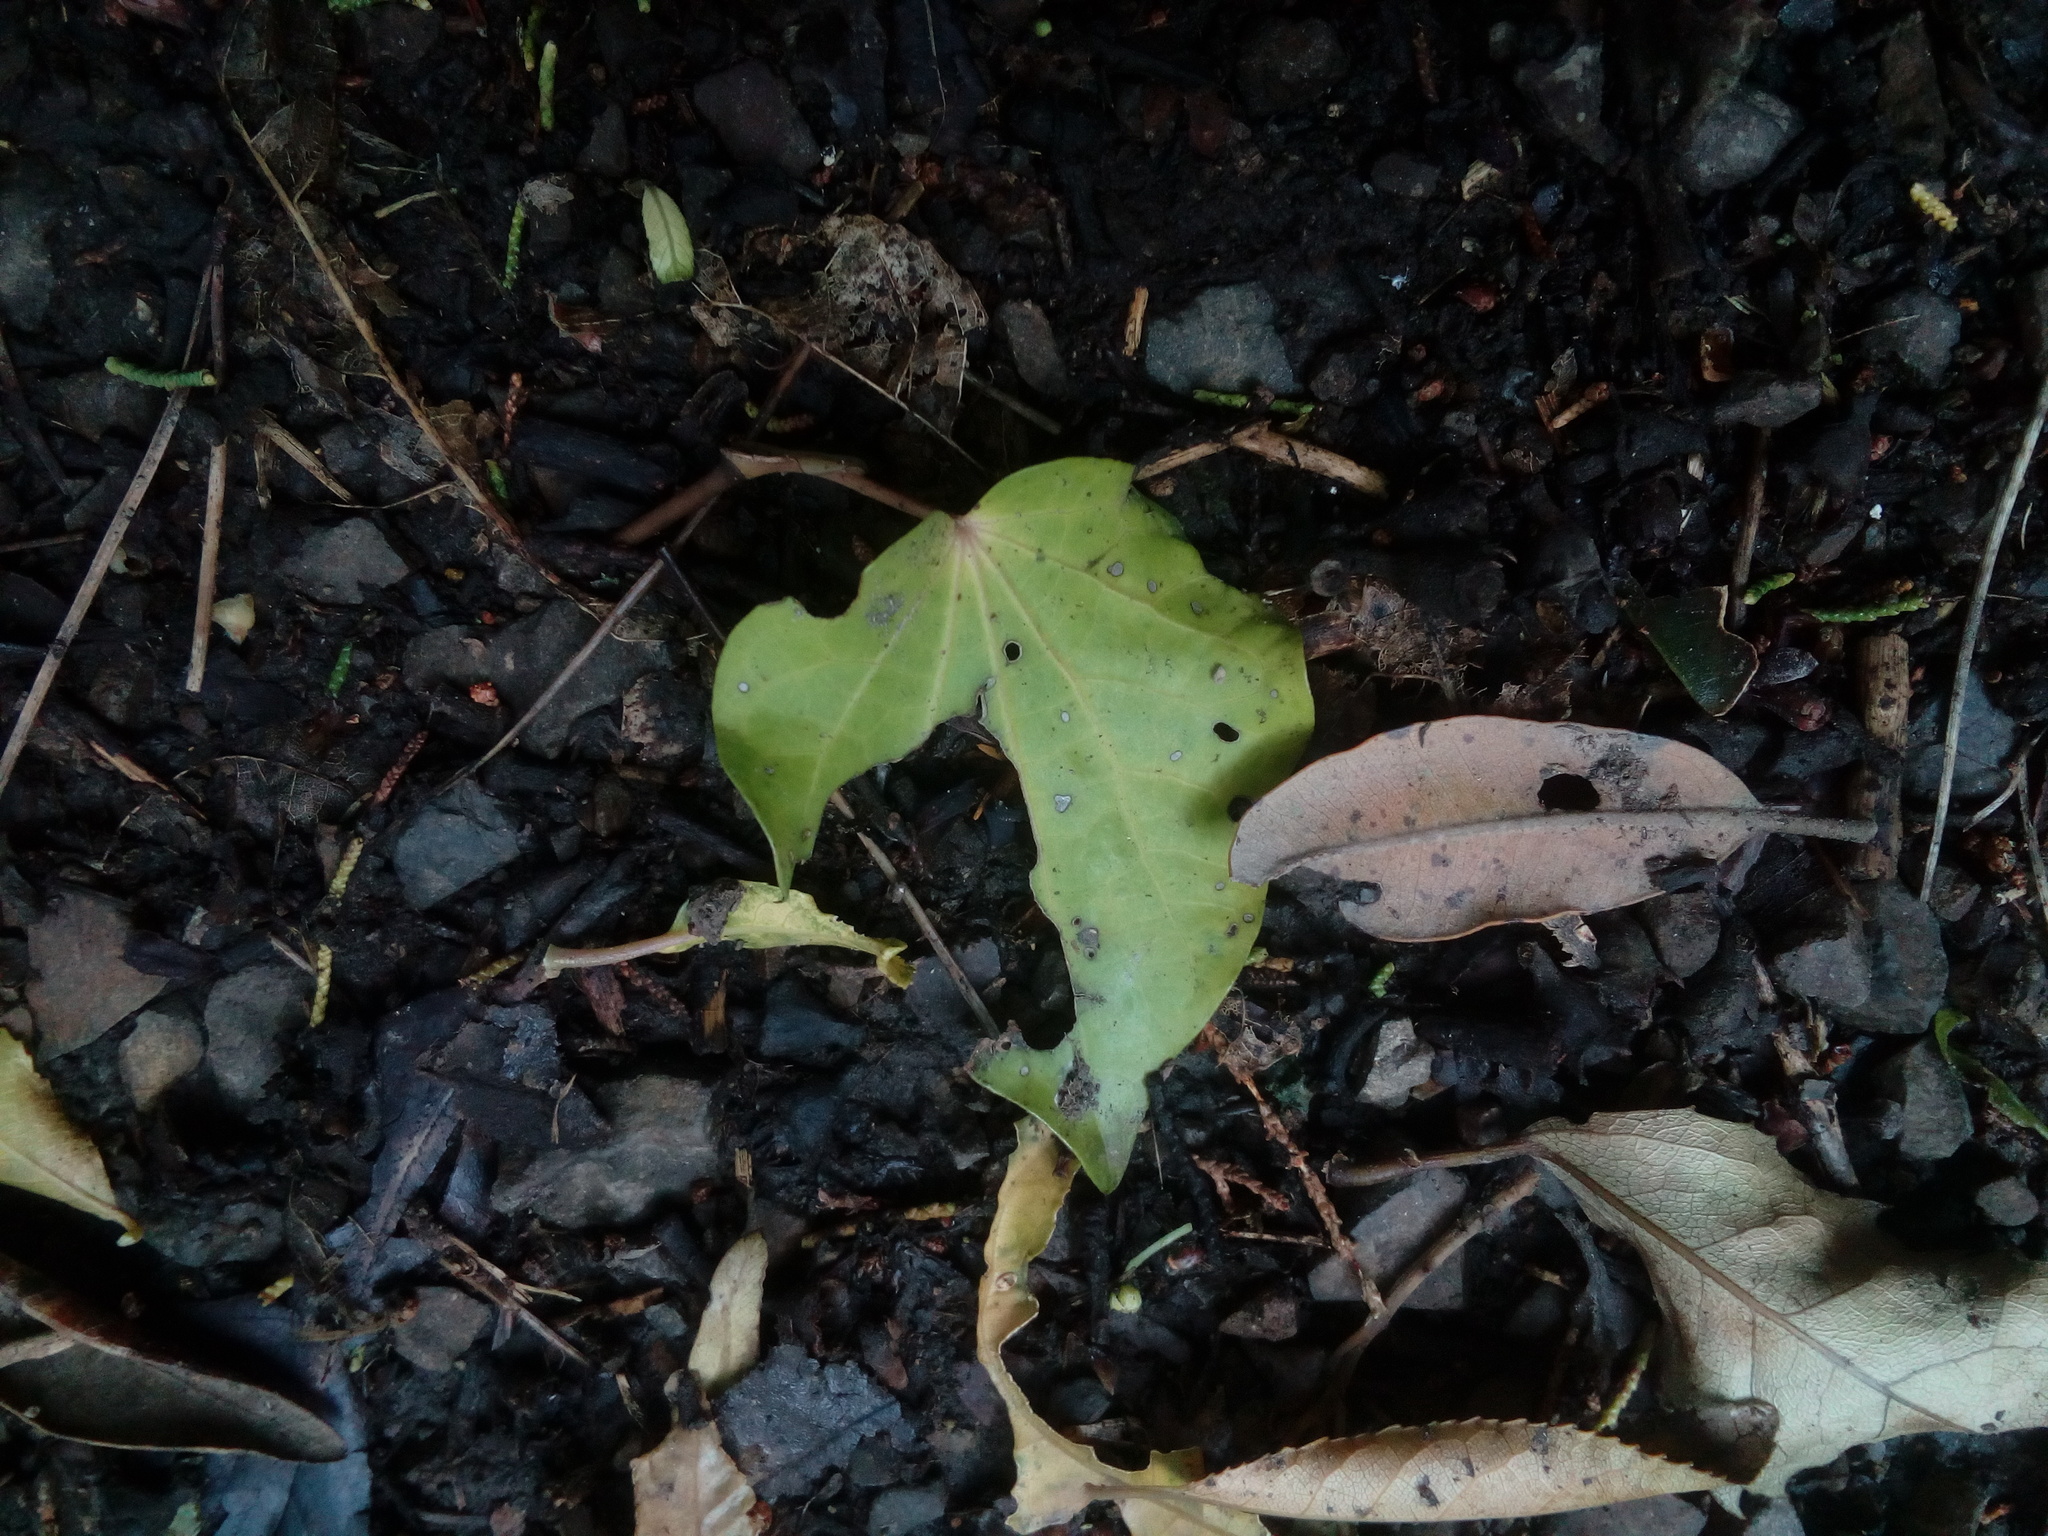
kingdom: Plantae
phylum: Tracheophyta
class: Magnoliopsida
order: Piperales
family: Piperaceae
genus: Macropiper
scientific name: Macropiper excelsum
